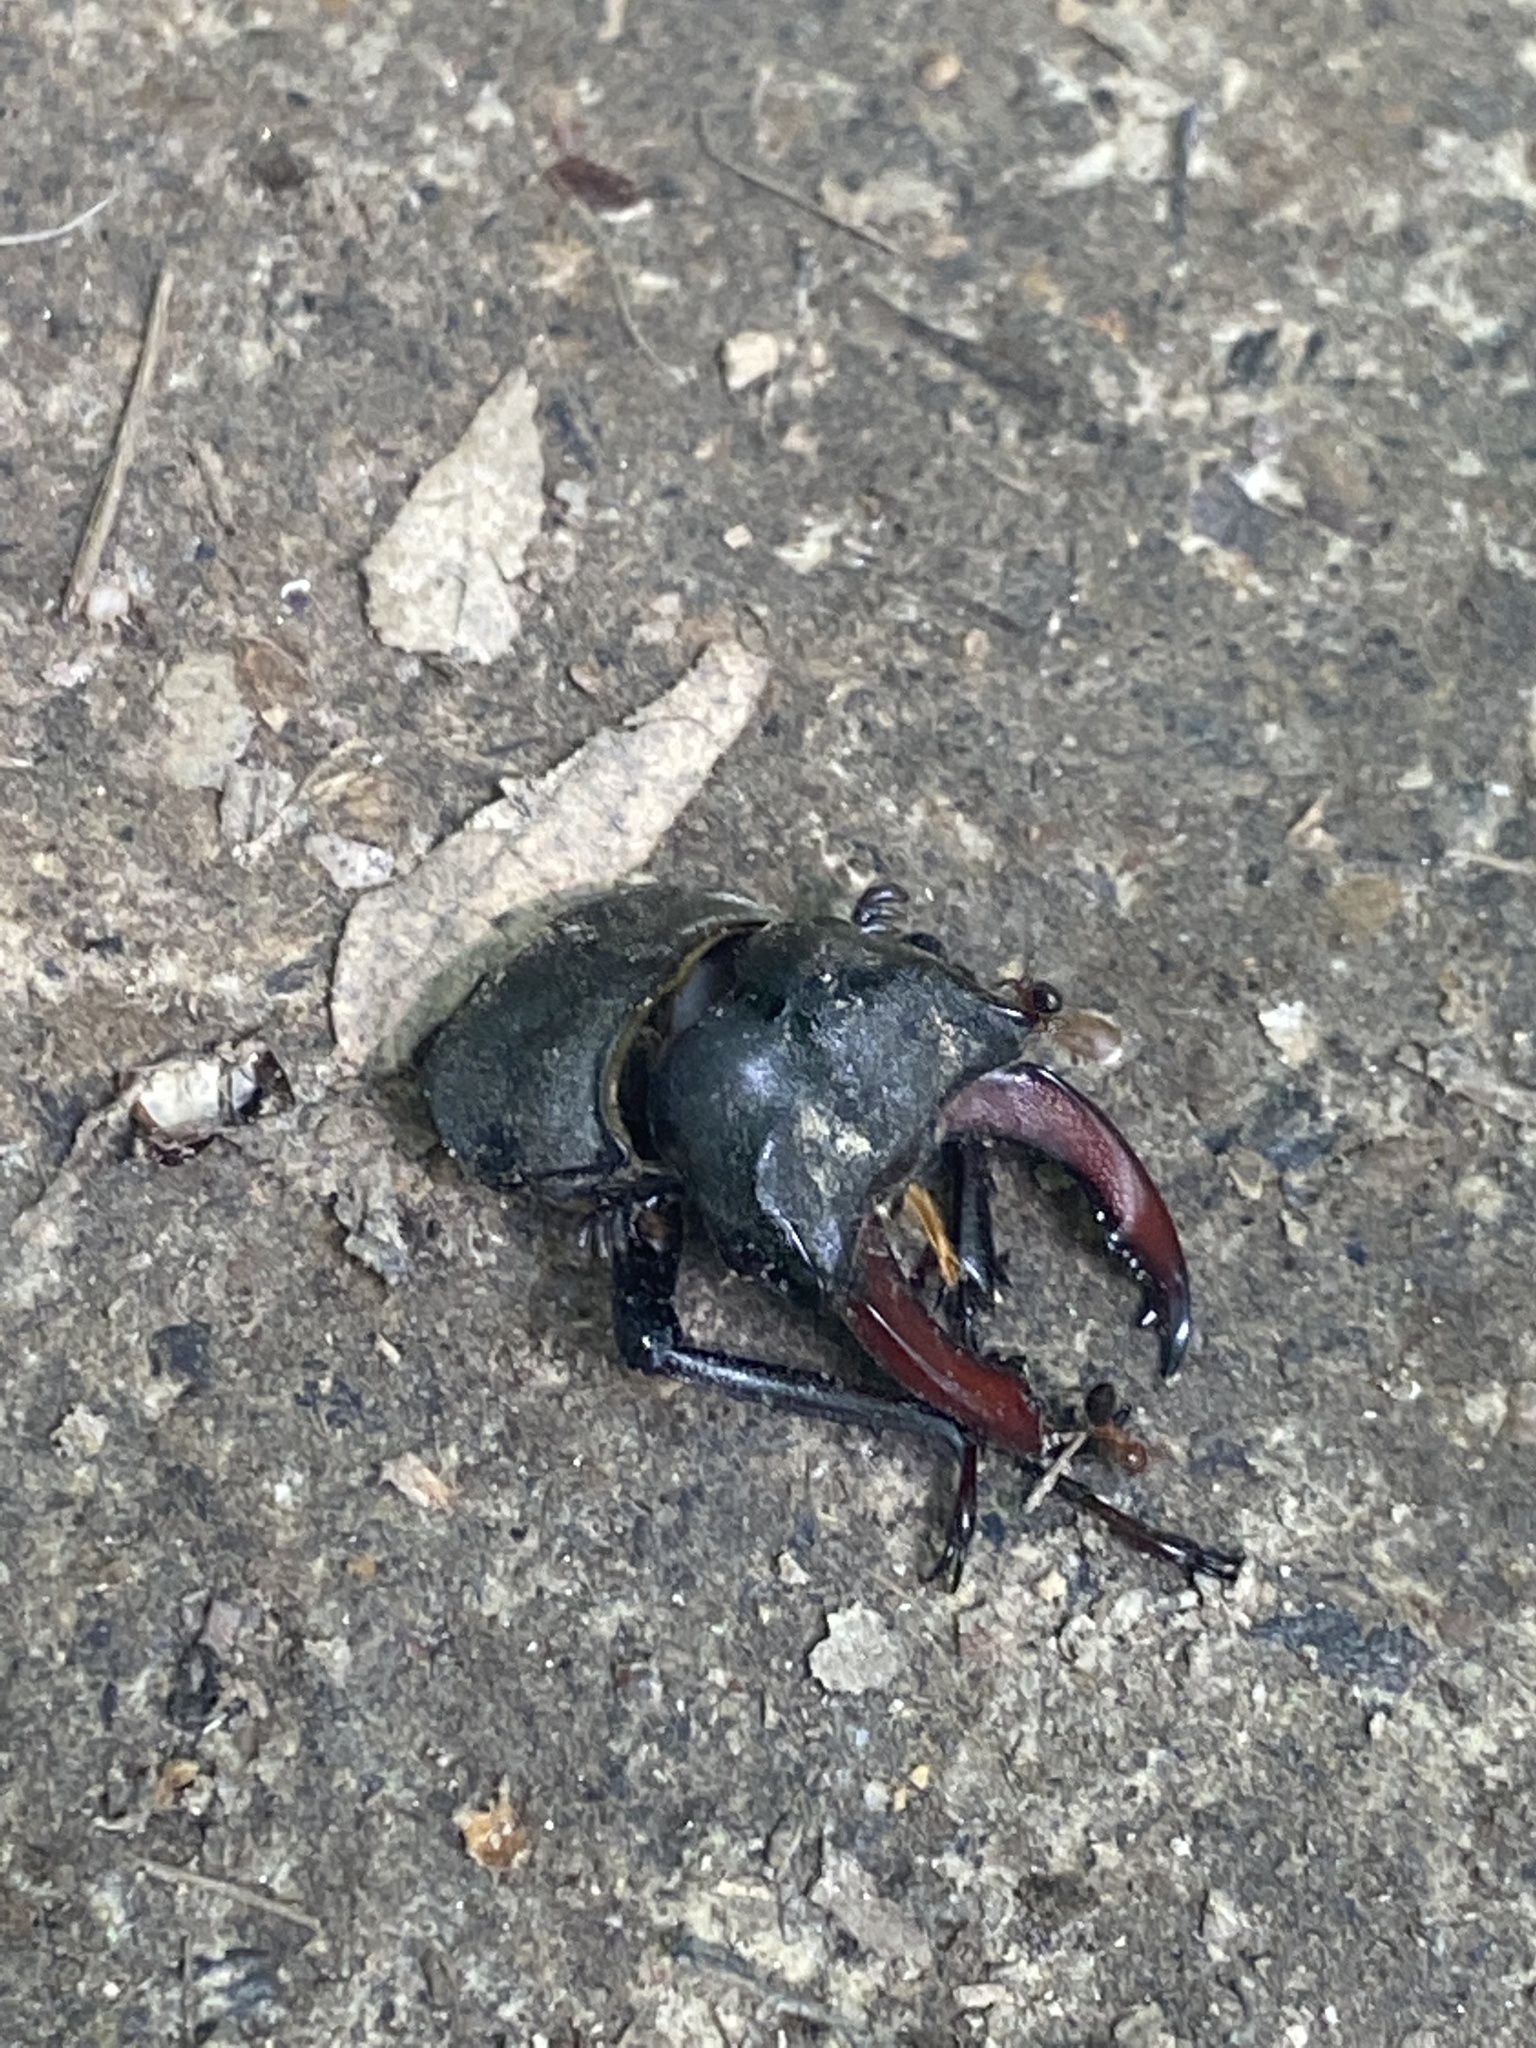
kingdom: Animalia
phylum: Arthropoda
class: Insecta
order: Coleoptera
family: Lucanidae
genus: Lucanus
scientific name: Lucanus cervus
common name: Stag beetle
